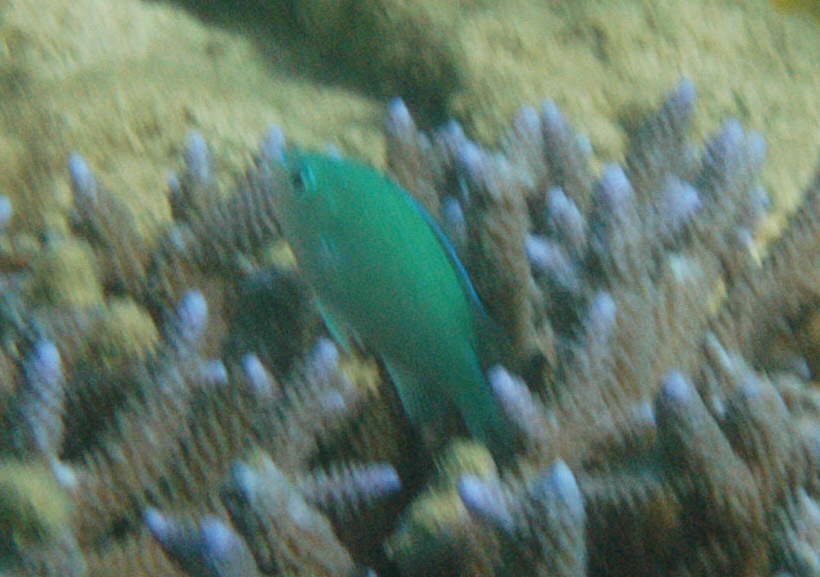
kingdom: Animalia
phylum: Chordata
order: Perciformes
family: Pomacentridae
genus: Chromis
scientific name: Chromis atripectoralis
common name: Black-axil chromis
